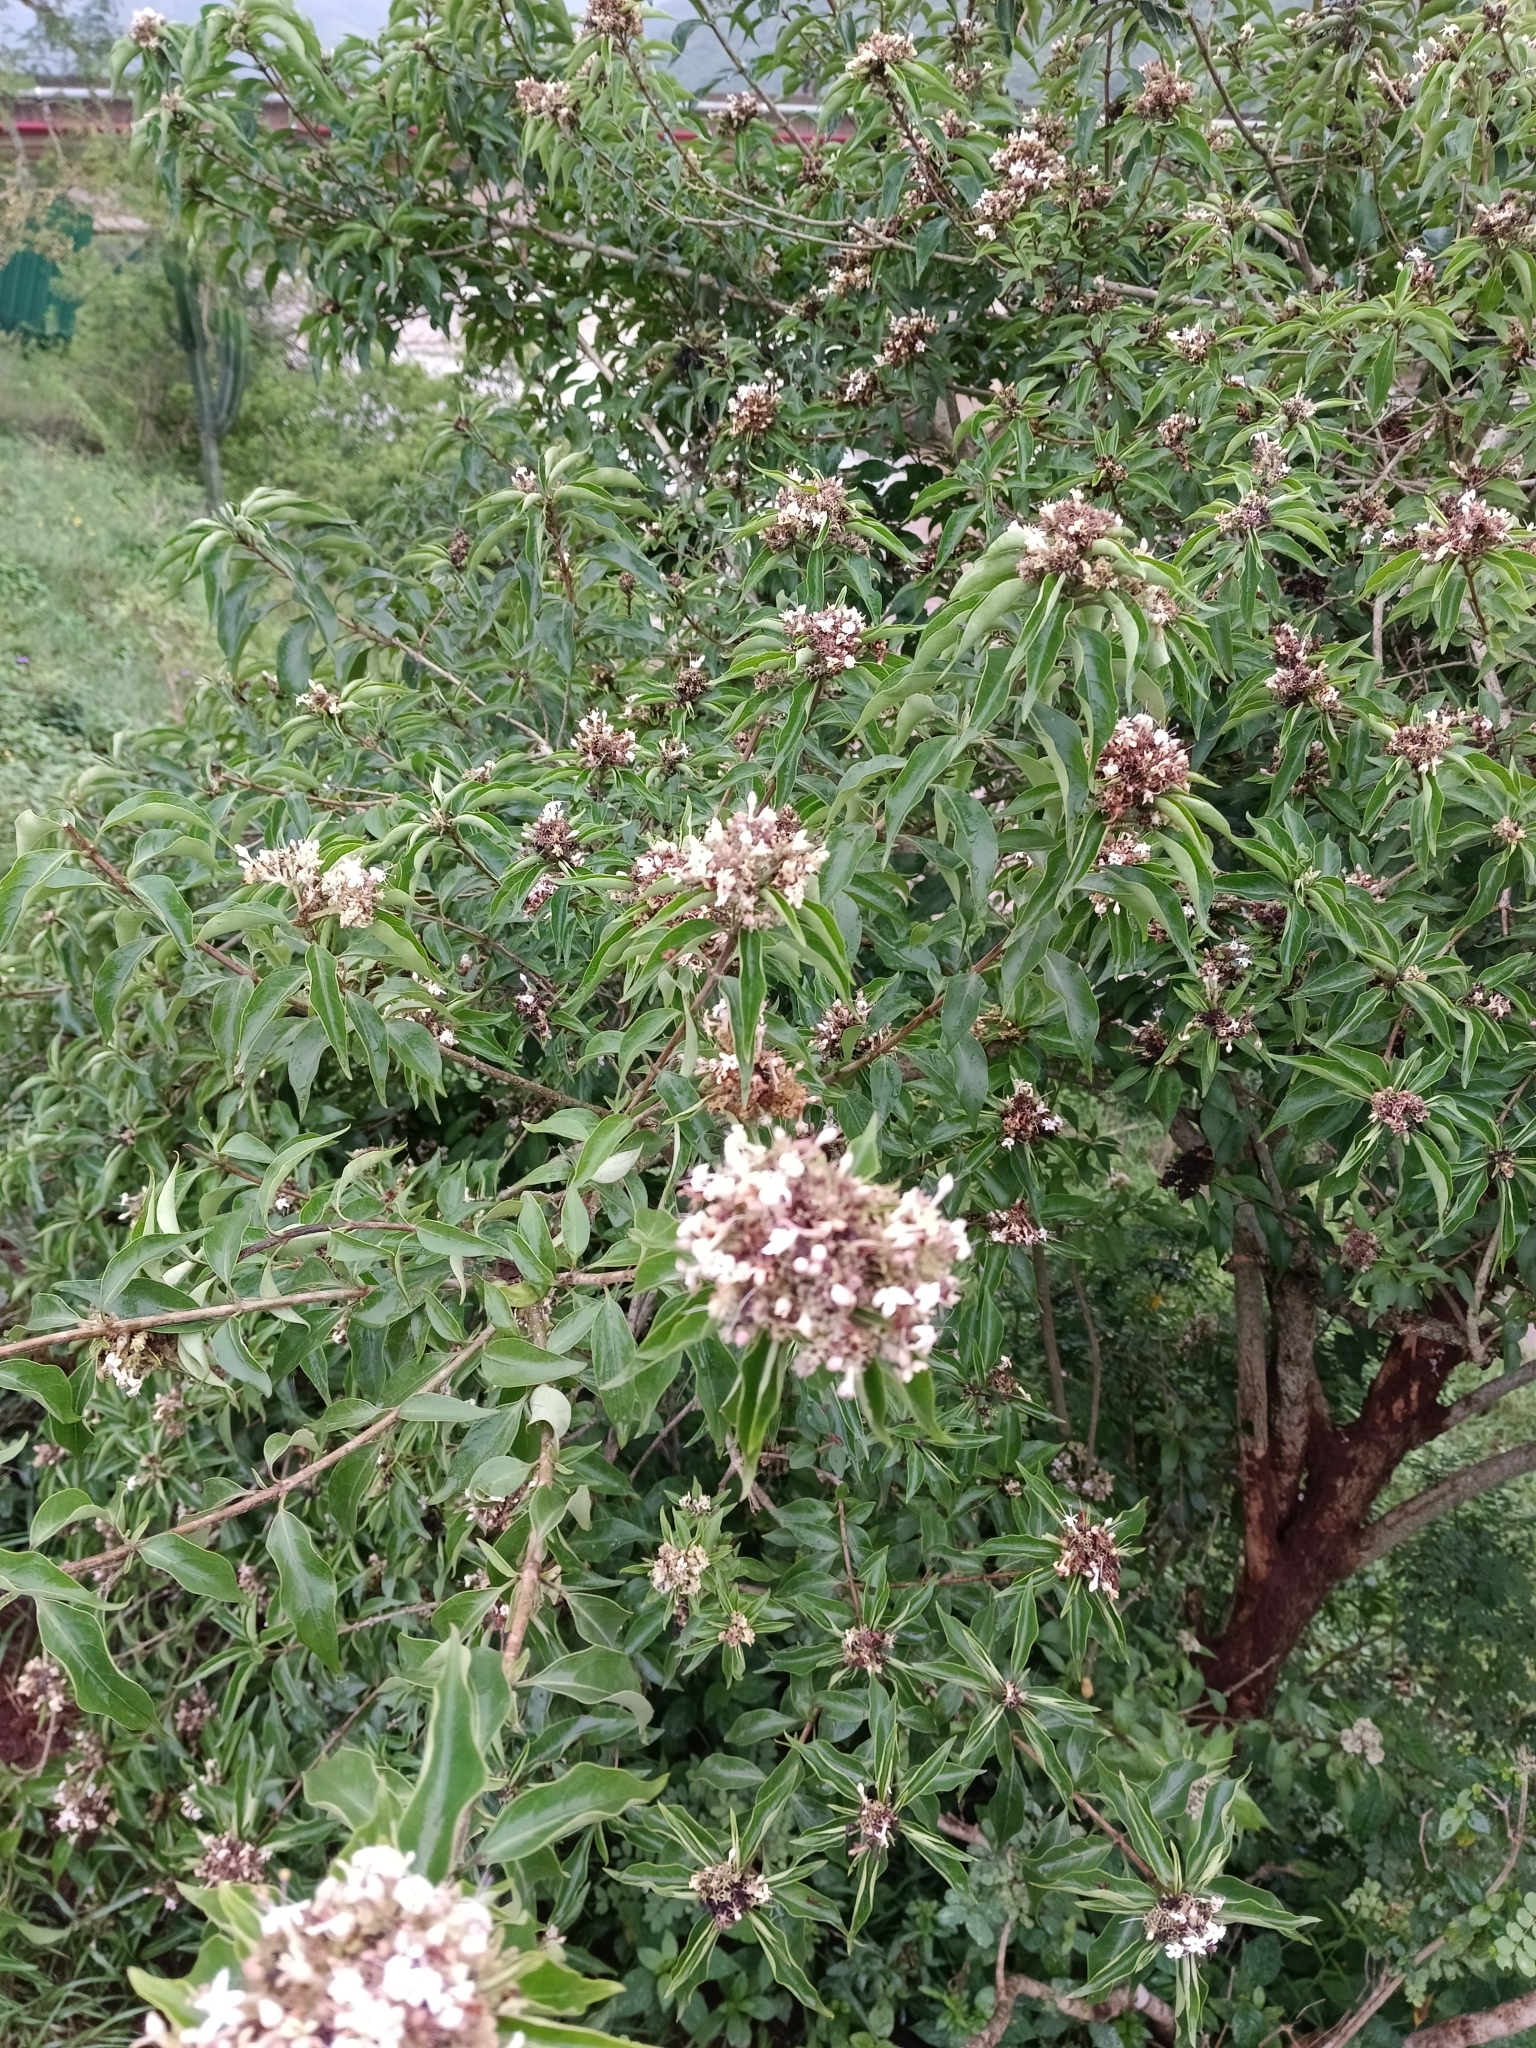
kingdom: Plantae
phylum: Tracheophyta
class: Magnoliopsida
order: Lamiales
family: Lamiaceae
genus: Volkameria
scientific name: Volkameria glabra
